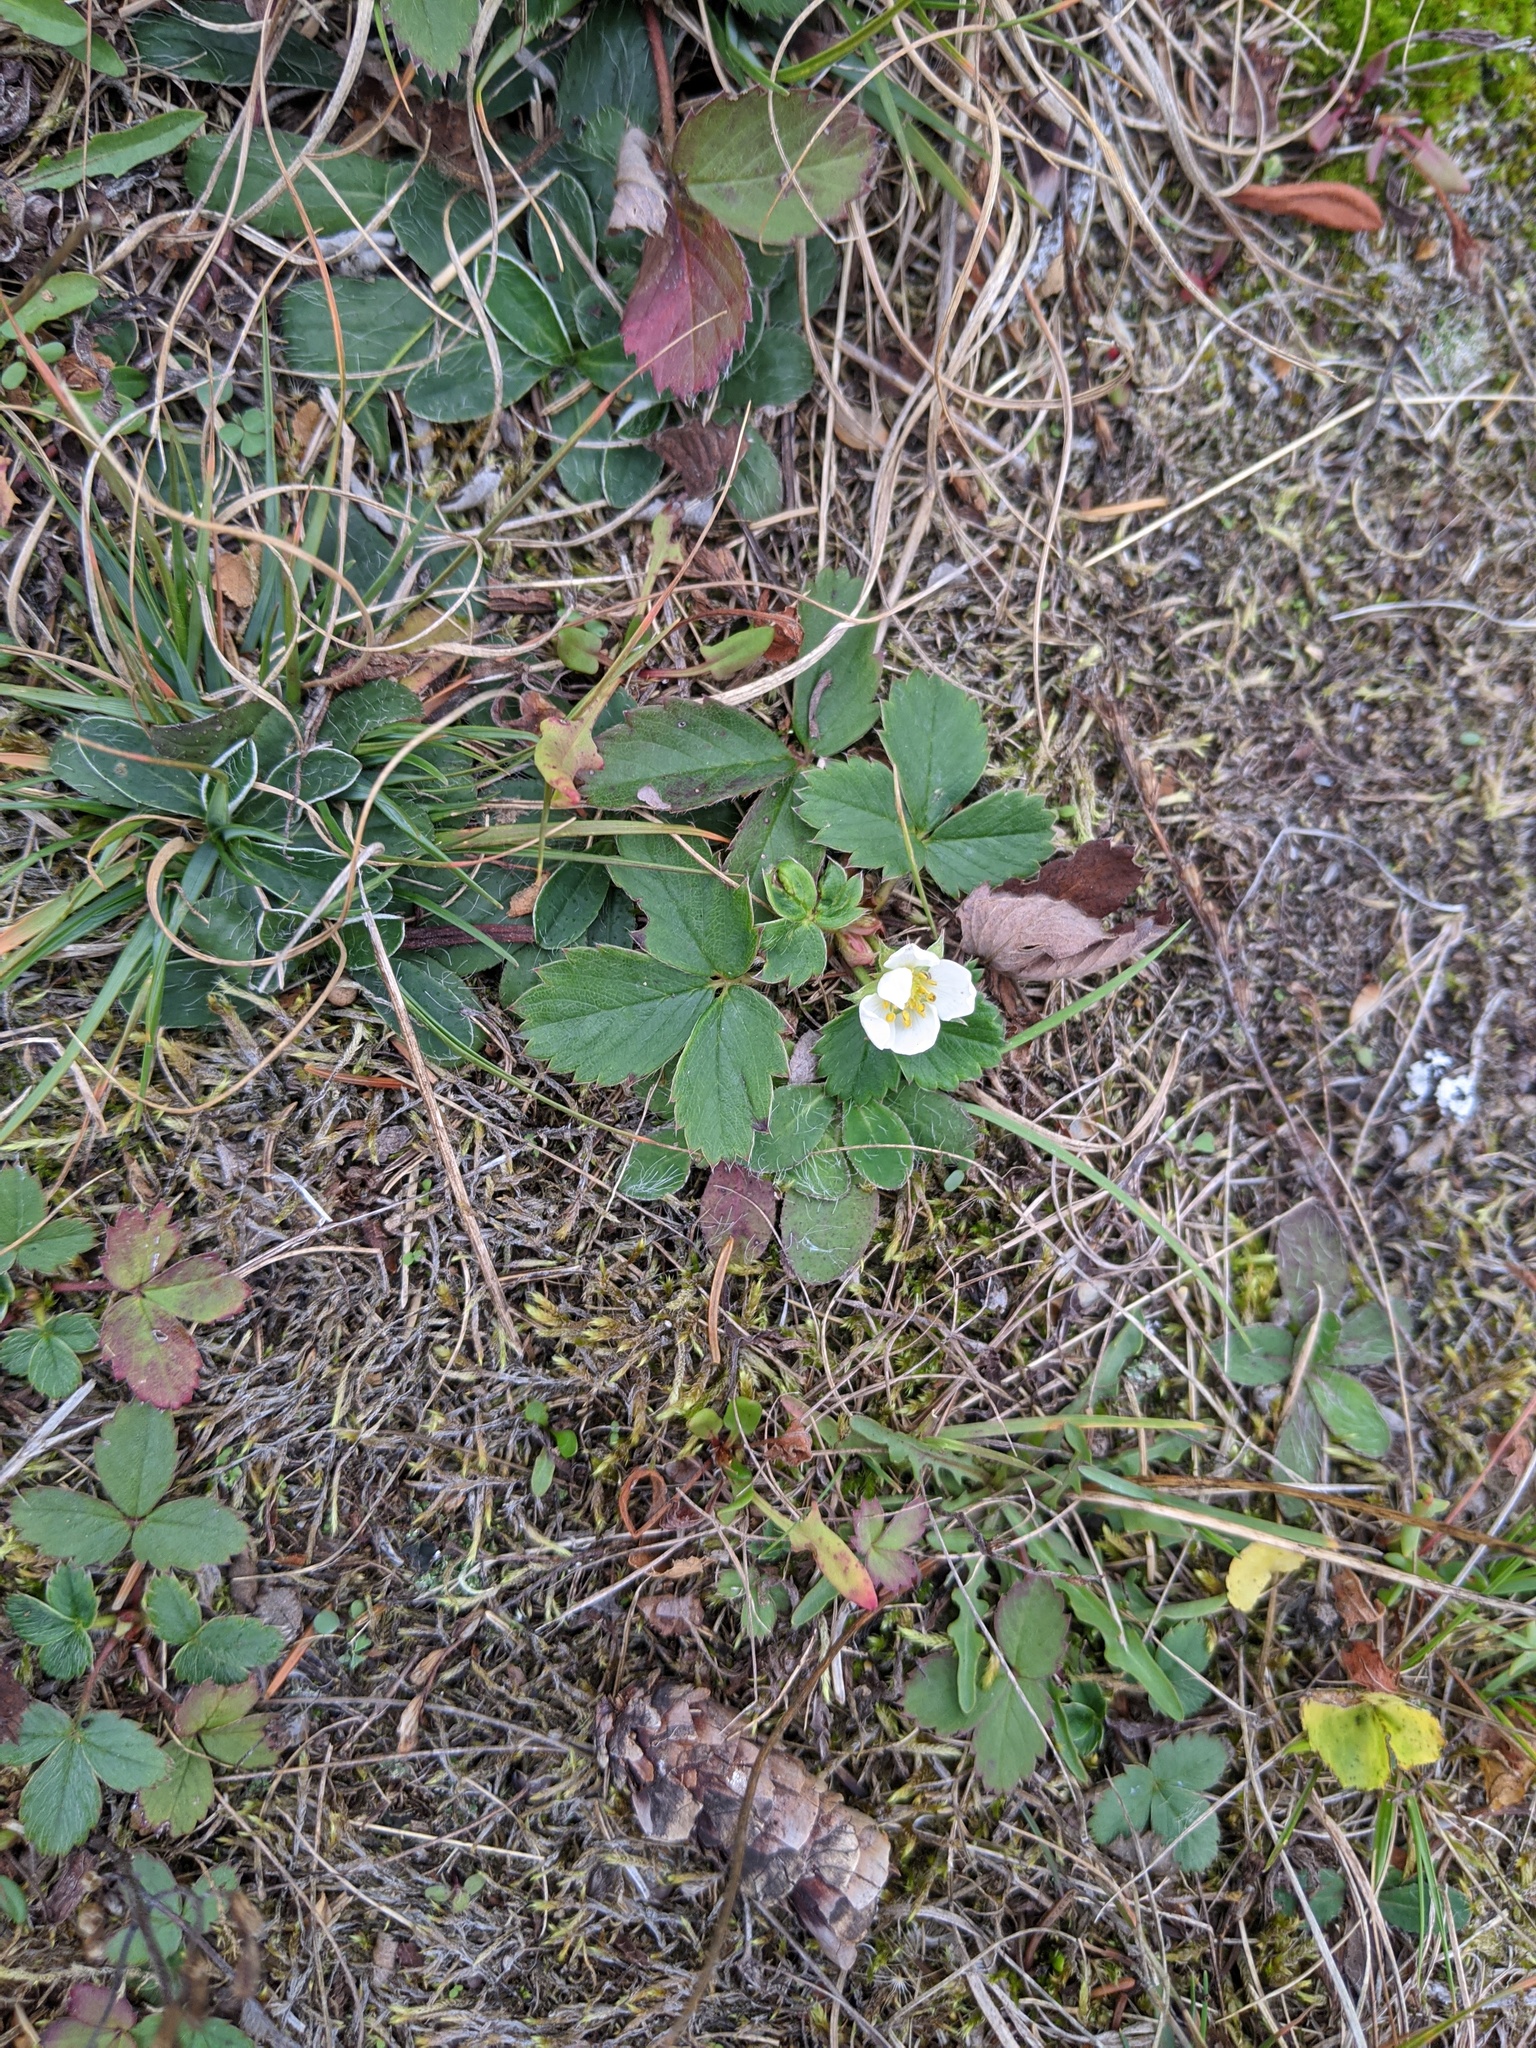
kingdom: Plantae
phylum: Tracheophyta
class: Magnoliopsida
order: Rosales
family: Rosaceae
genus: Fragaria
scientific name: Fragaria virginiana
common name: Thickleaved wild strawberry
